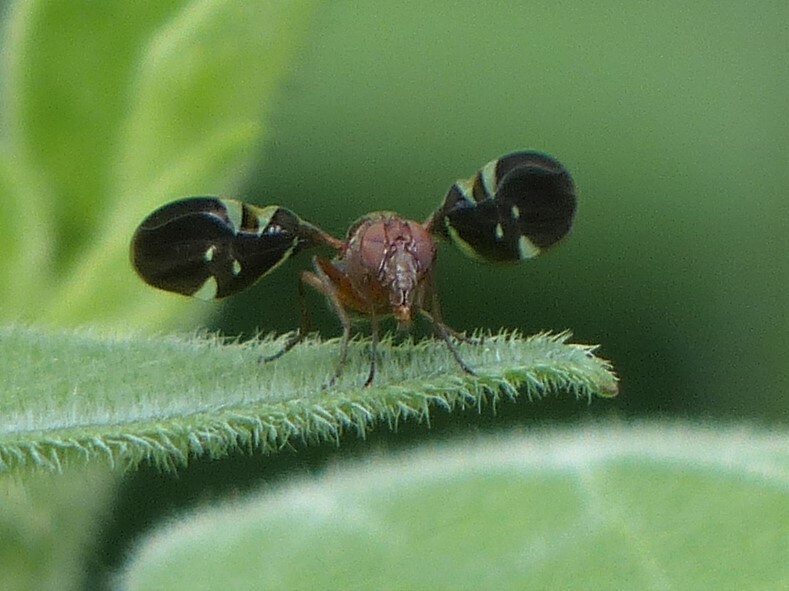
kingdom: Animalia
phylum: Arthropoda
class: Insecta
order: Diptera
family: Ulidiidae
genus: Delphinia
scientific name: Delphinia picta
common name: Common picture-winged fly
